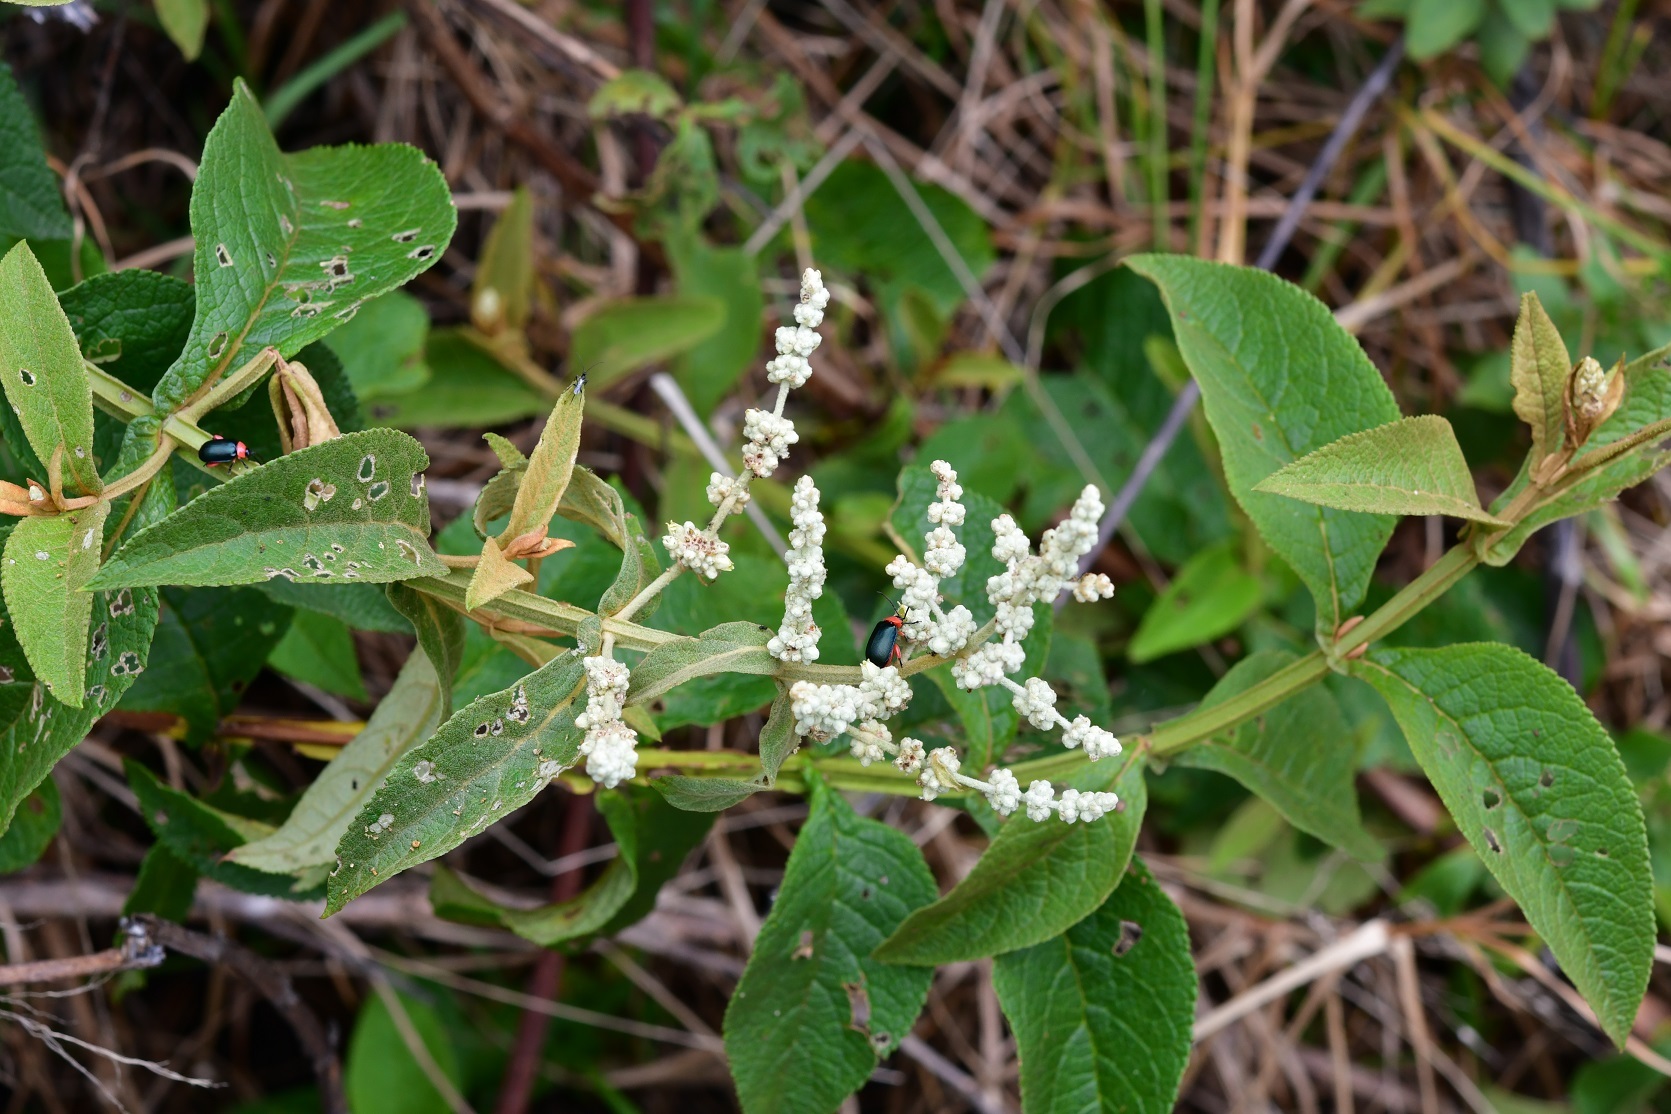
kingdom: Plantae
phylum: Tracheophyta
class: Magnoliopsida
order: Lamiales
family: Scrophulariaceae
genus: Buddleja
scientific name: Buddleja crotonoides
